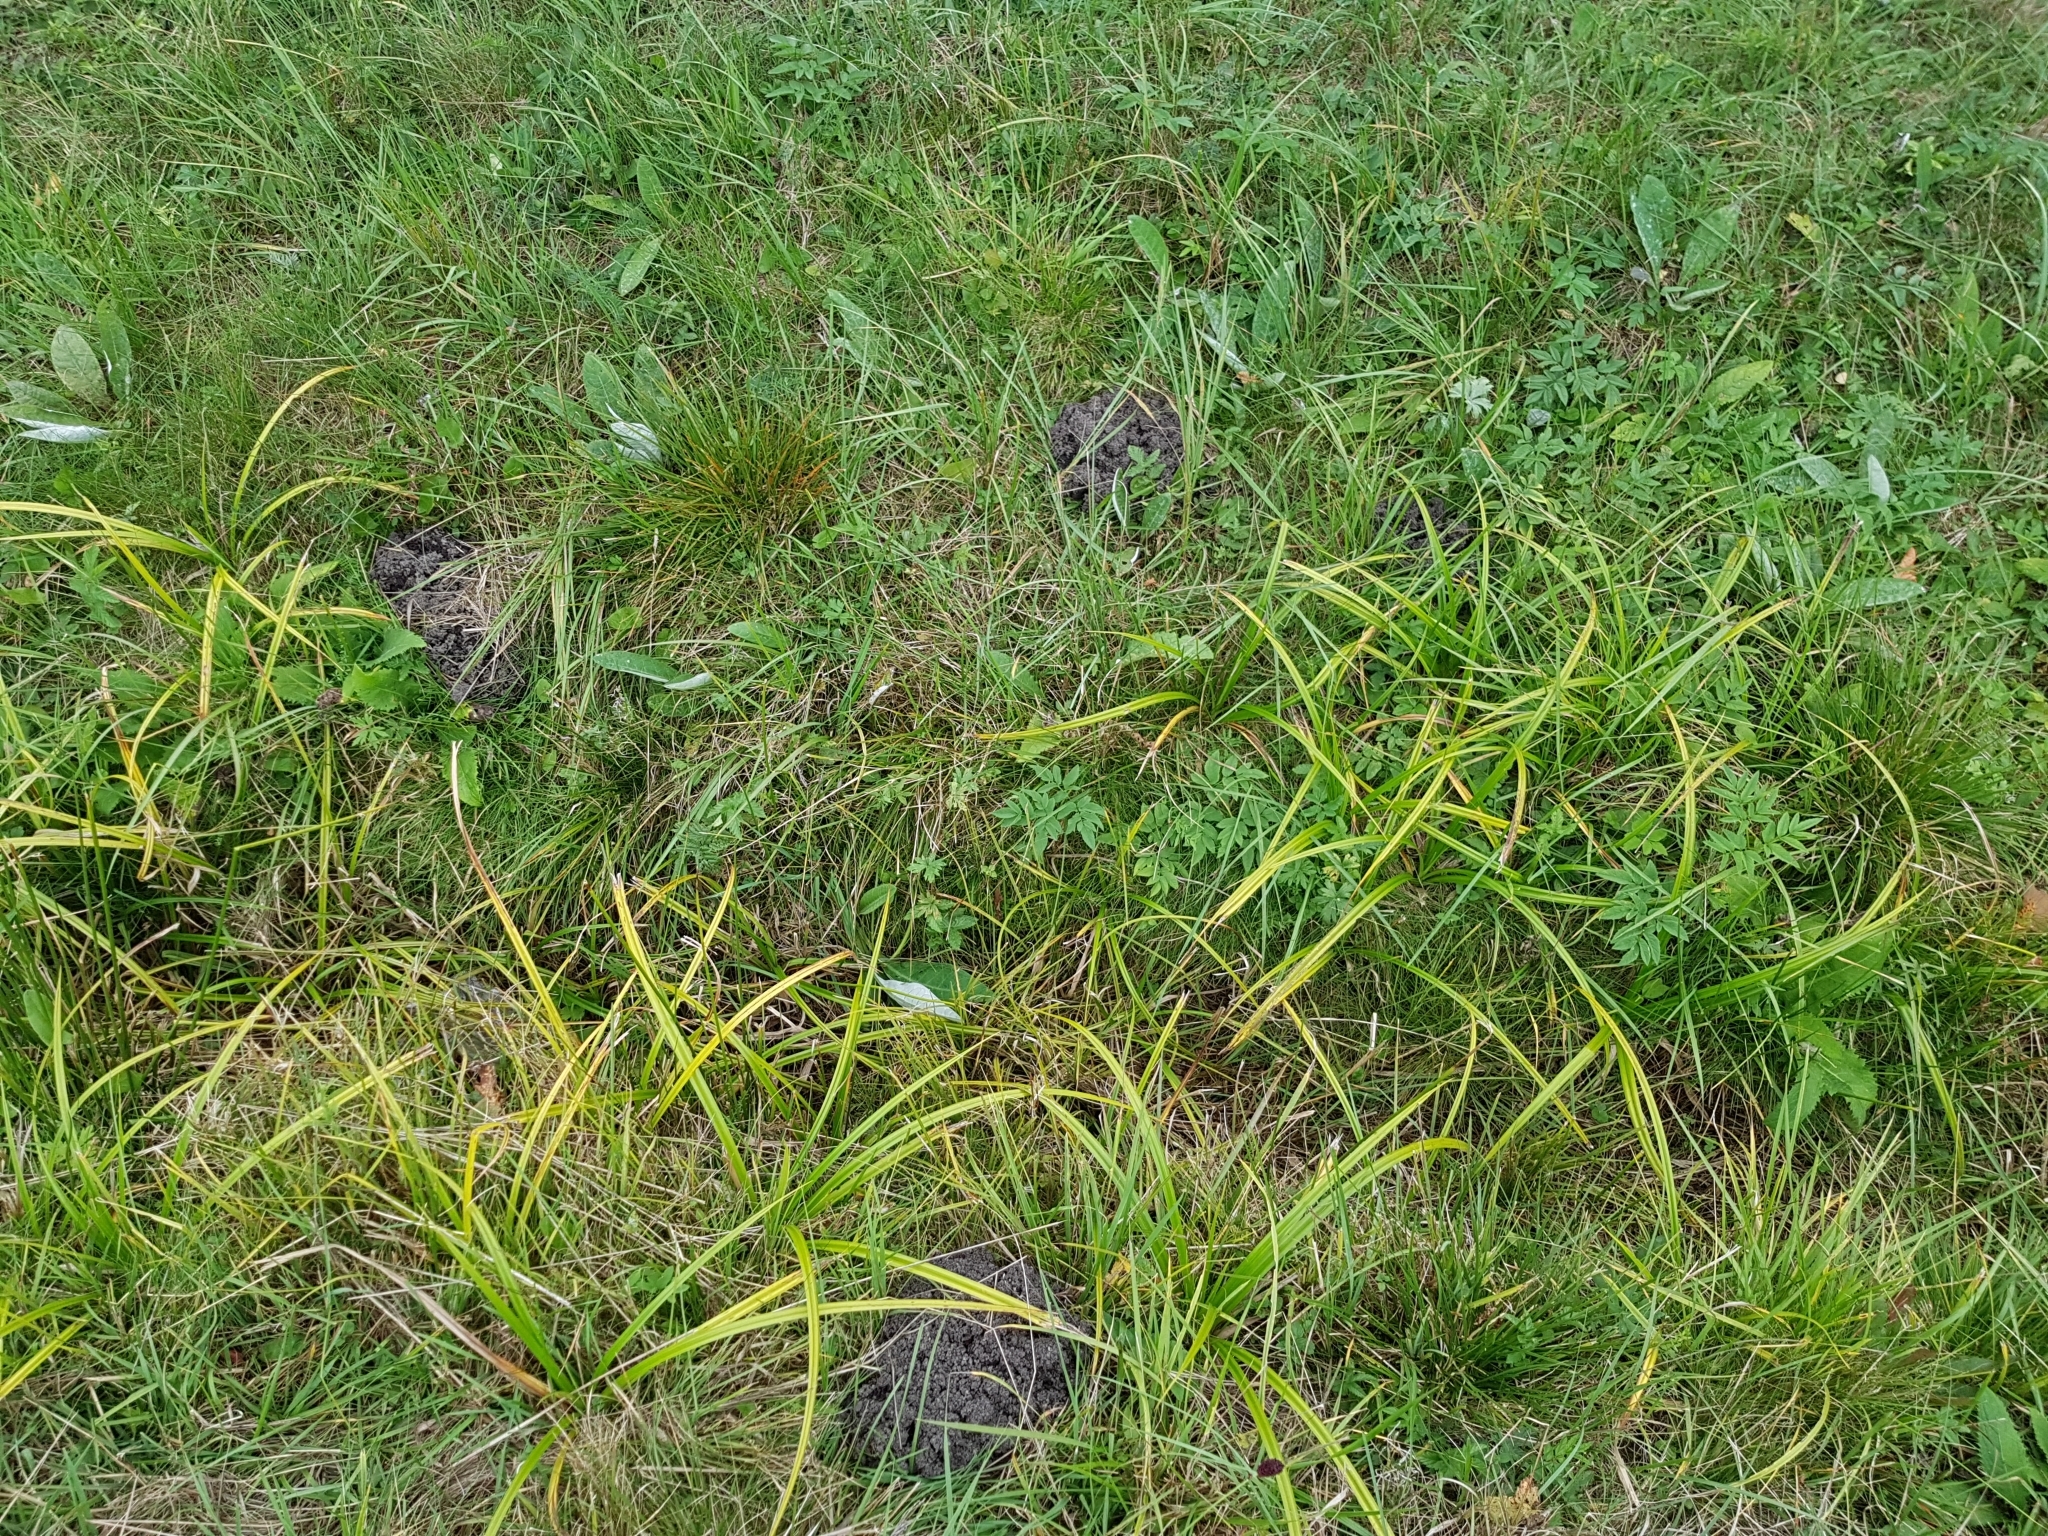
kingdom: Animalia
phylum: Chordata
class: Mammalia
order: Soricomorpha
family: Talpidae
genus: Talpa
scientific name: Talpa europaea
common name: European mole
